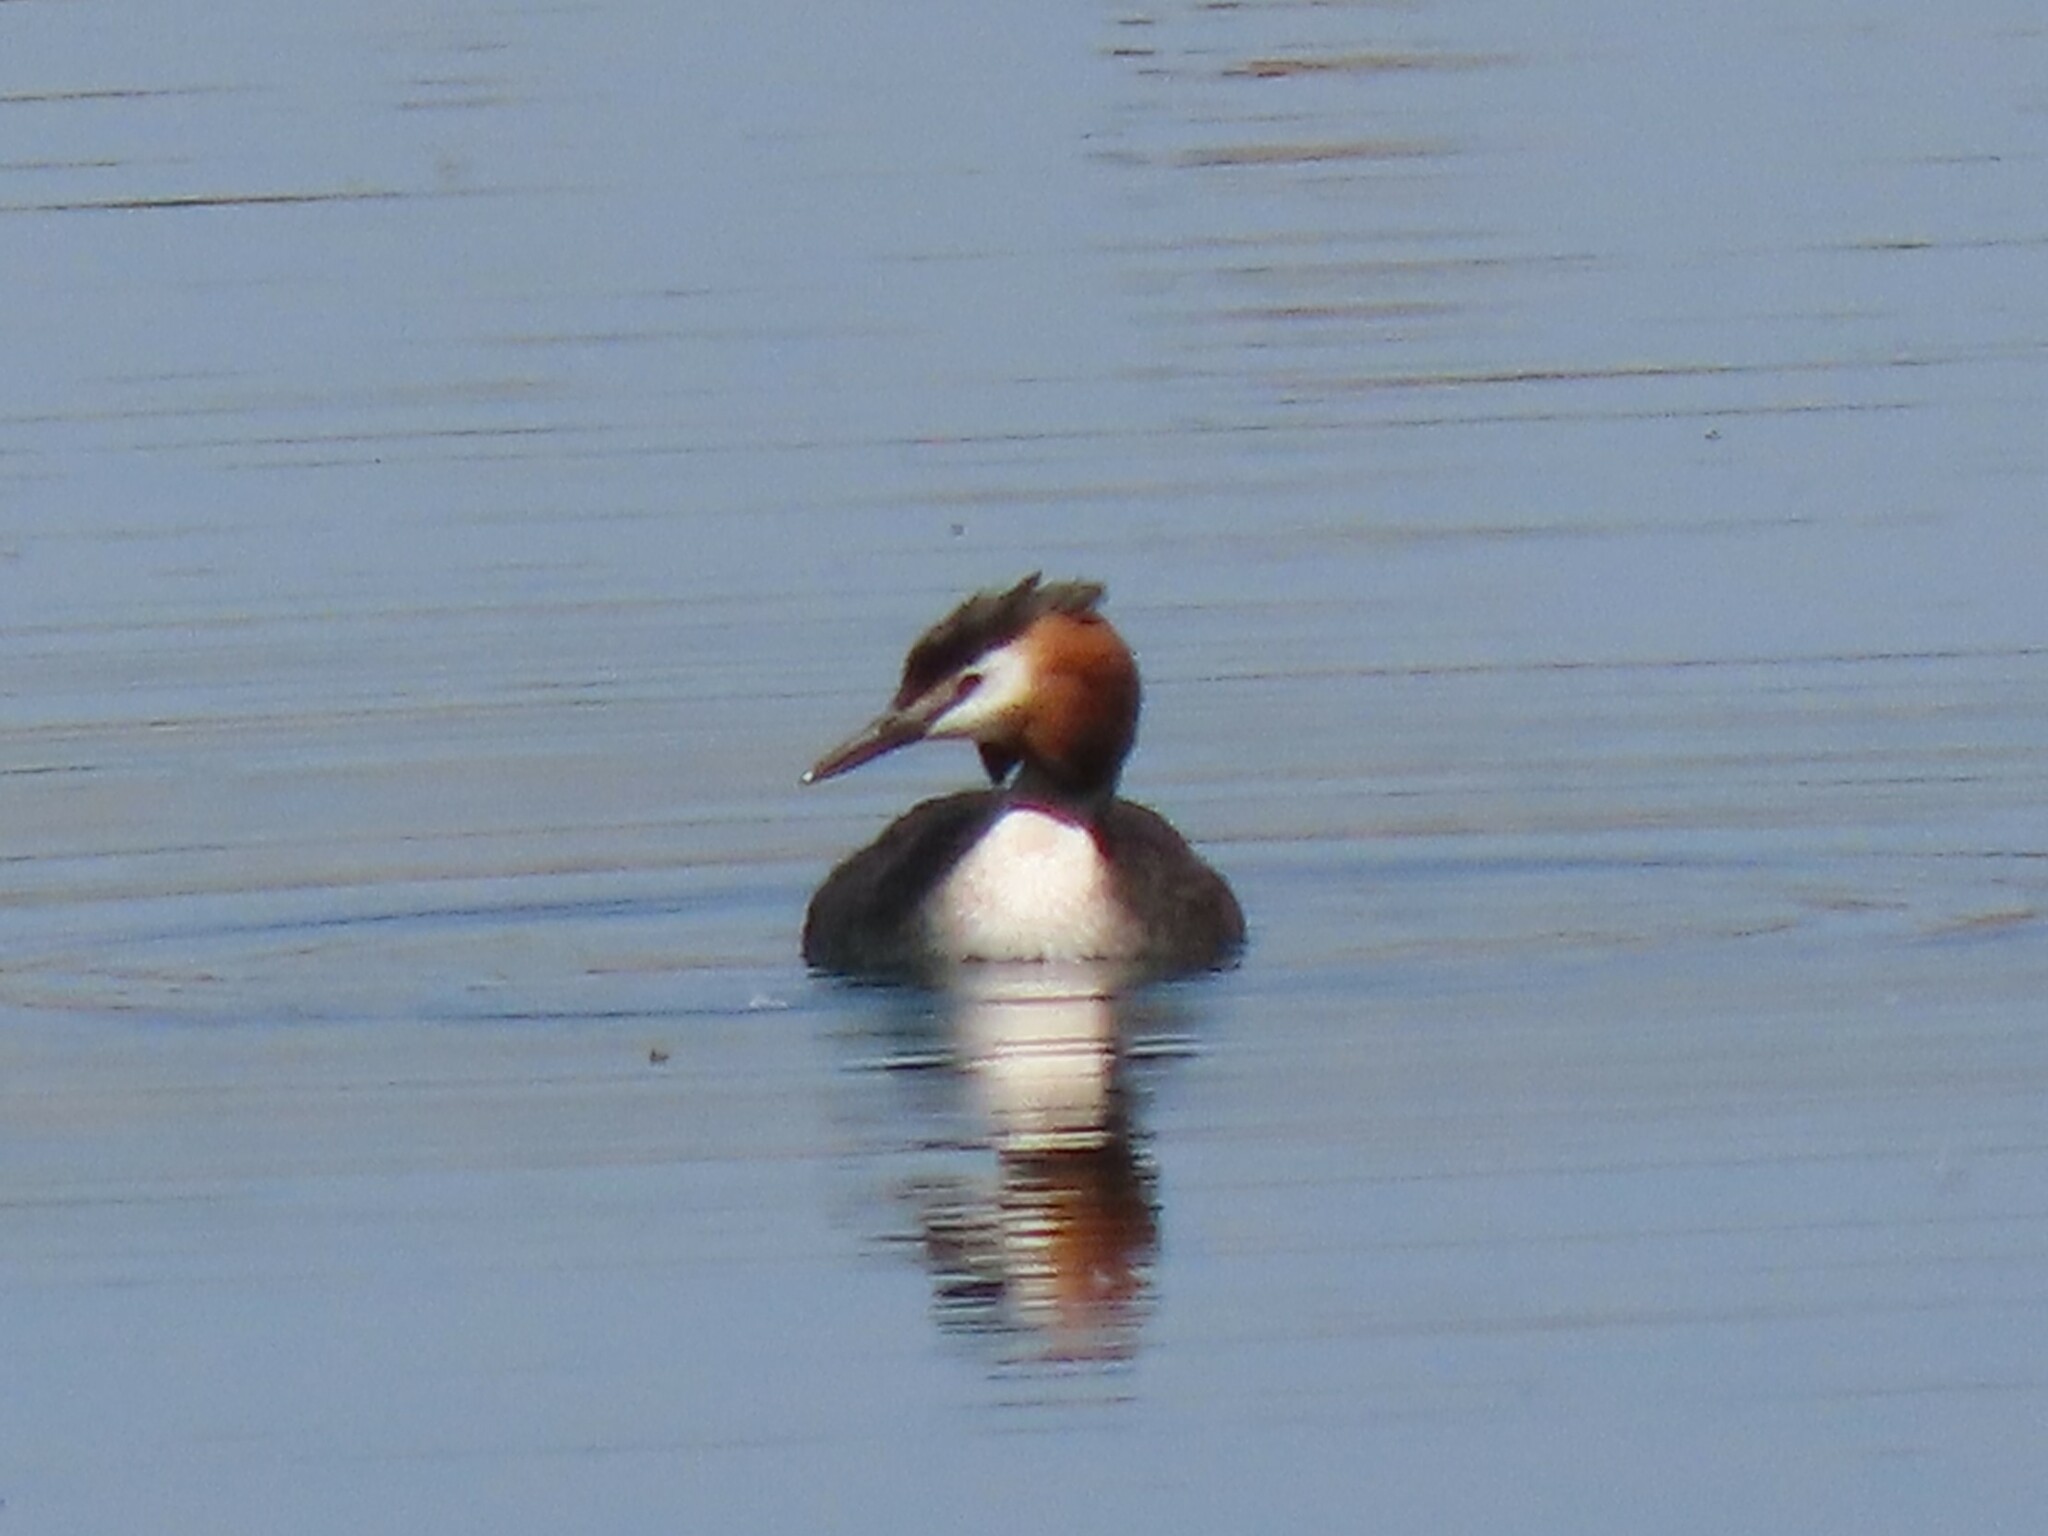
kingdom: Animalia
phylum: Chordata
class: Aves
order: Podicipediformes
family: Podicipedidae
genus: Podiceps
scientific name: Podiceps cristatus
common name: Great crested grebe
